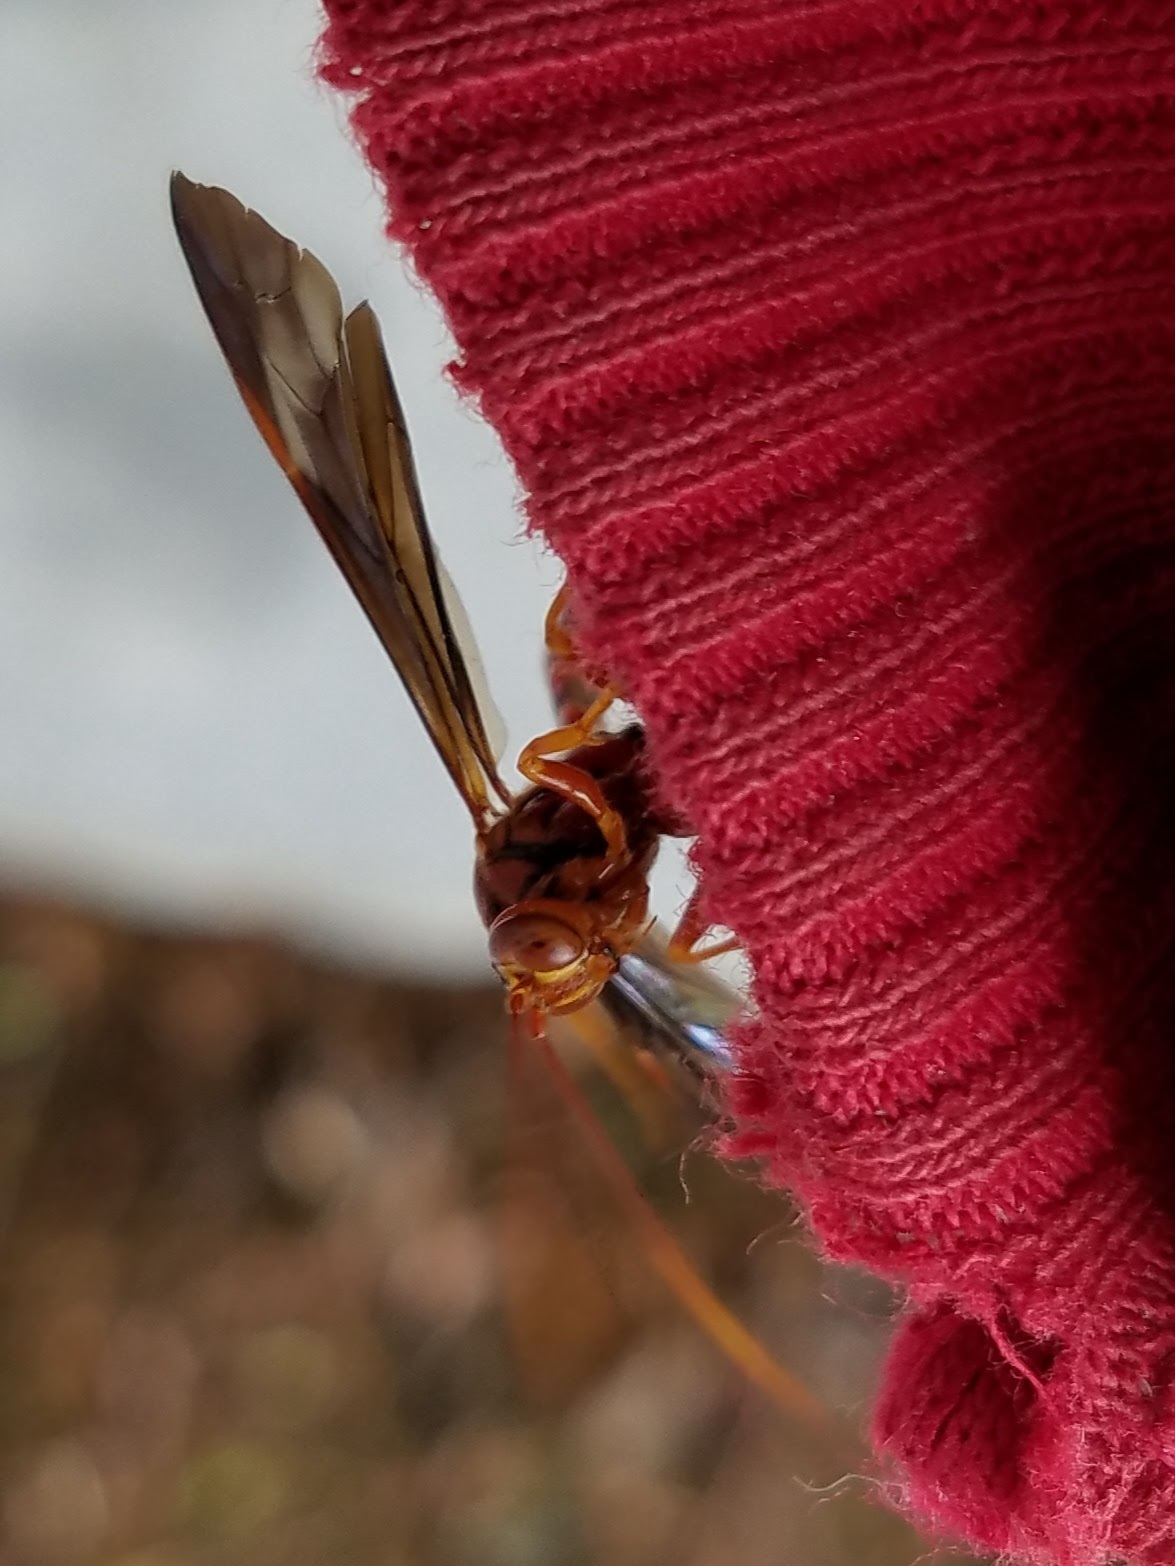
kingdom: Animalia
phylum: Arthropoda
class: Insecta
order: Hymenoptera
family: Ichneumonidae
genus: Labena
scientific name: Labena grallator
